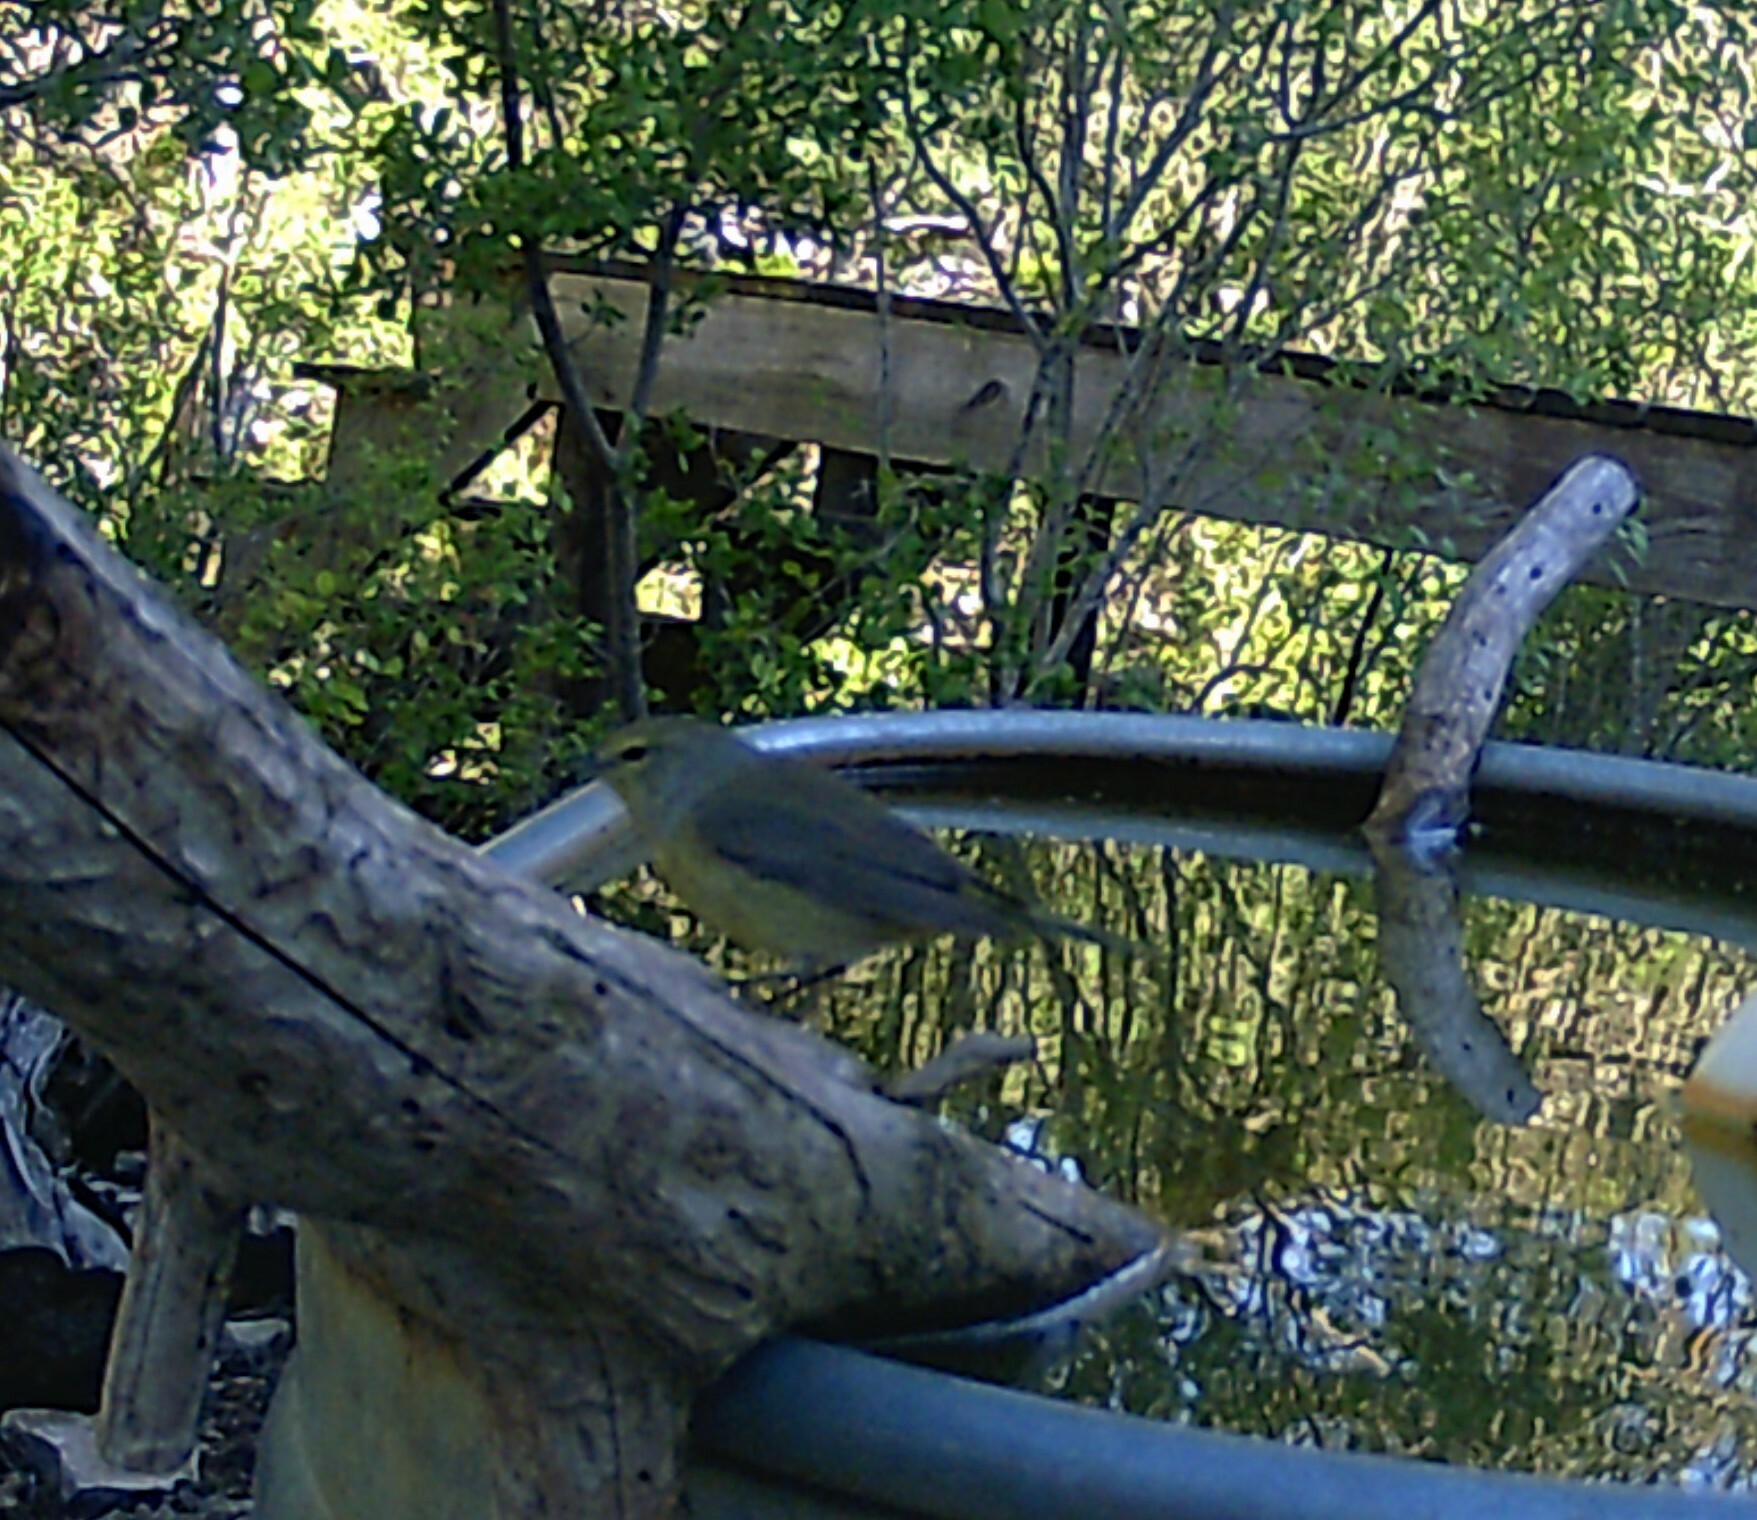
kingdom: Animalia
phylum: Chordata
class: Aves
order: Passeriformes
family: Parulidae
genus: Leiothlypis
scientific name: Leiothlypis celata
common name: Orange-crowned warbler
